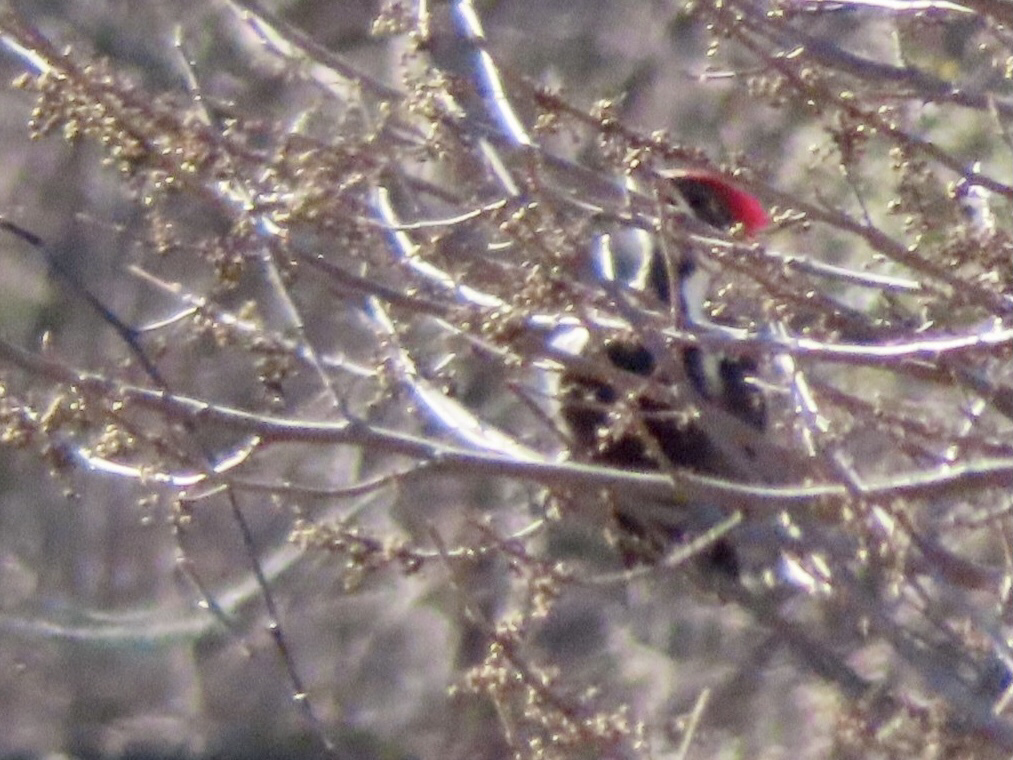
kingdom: Animalia
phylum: Chordata
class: Aves
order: Piciformes
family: Picidae
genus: Dryocopus
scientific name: Dryocopus pileatus
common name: Pileated woodpecker
